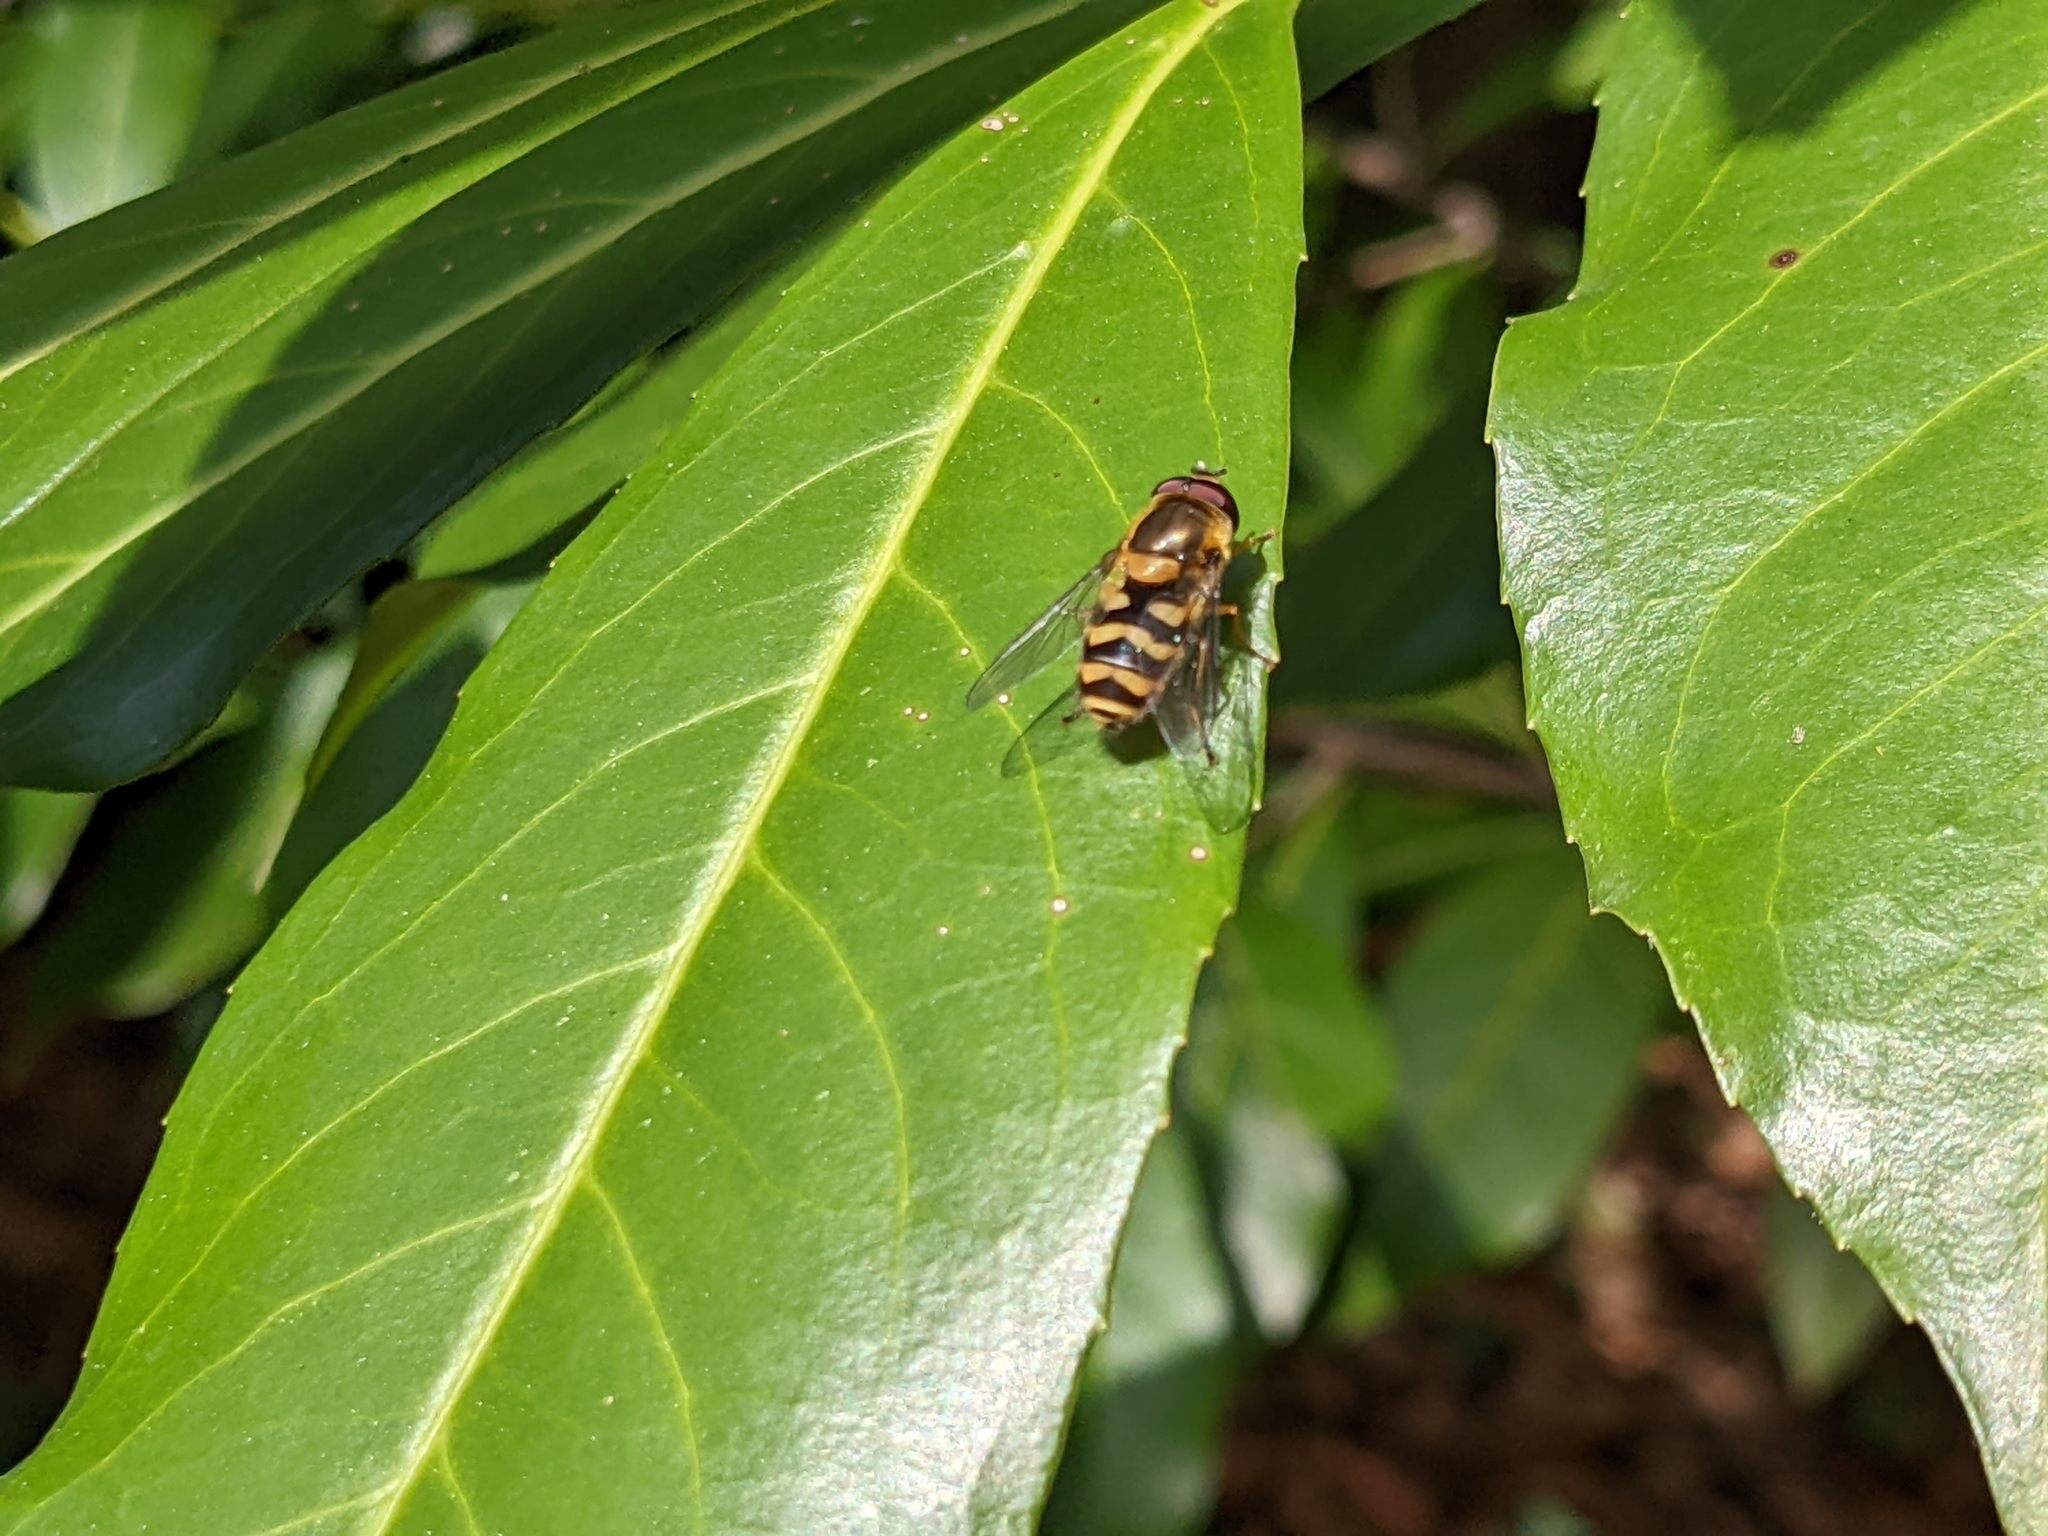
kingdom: Animalia
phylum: Arthropoda
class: Insecta
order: Diptera
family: Syrphidae
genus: Syrphus
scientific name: Syrphus
